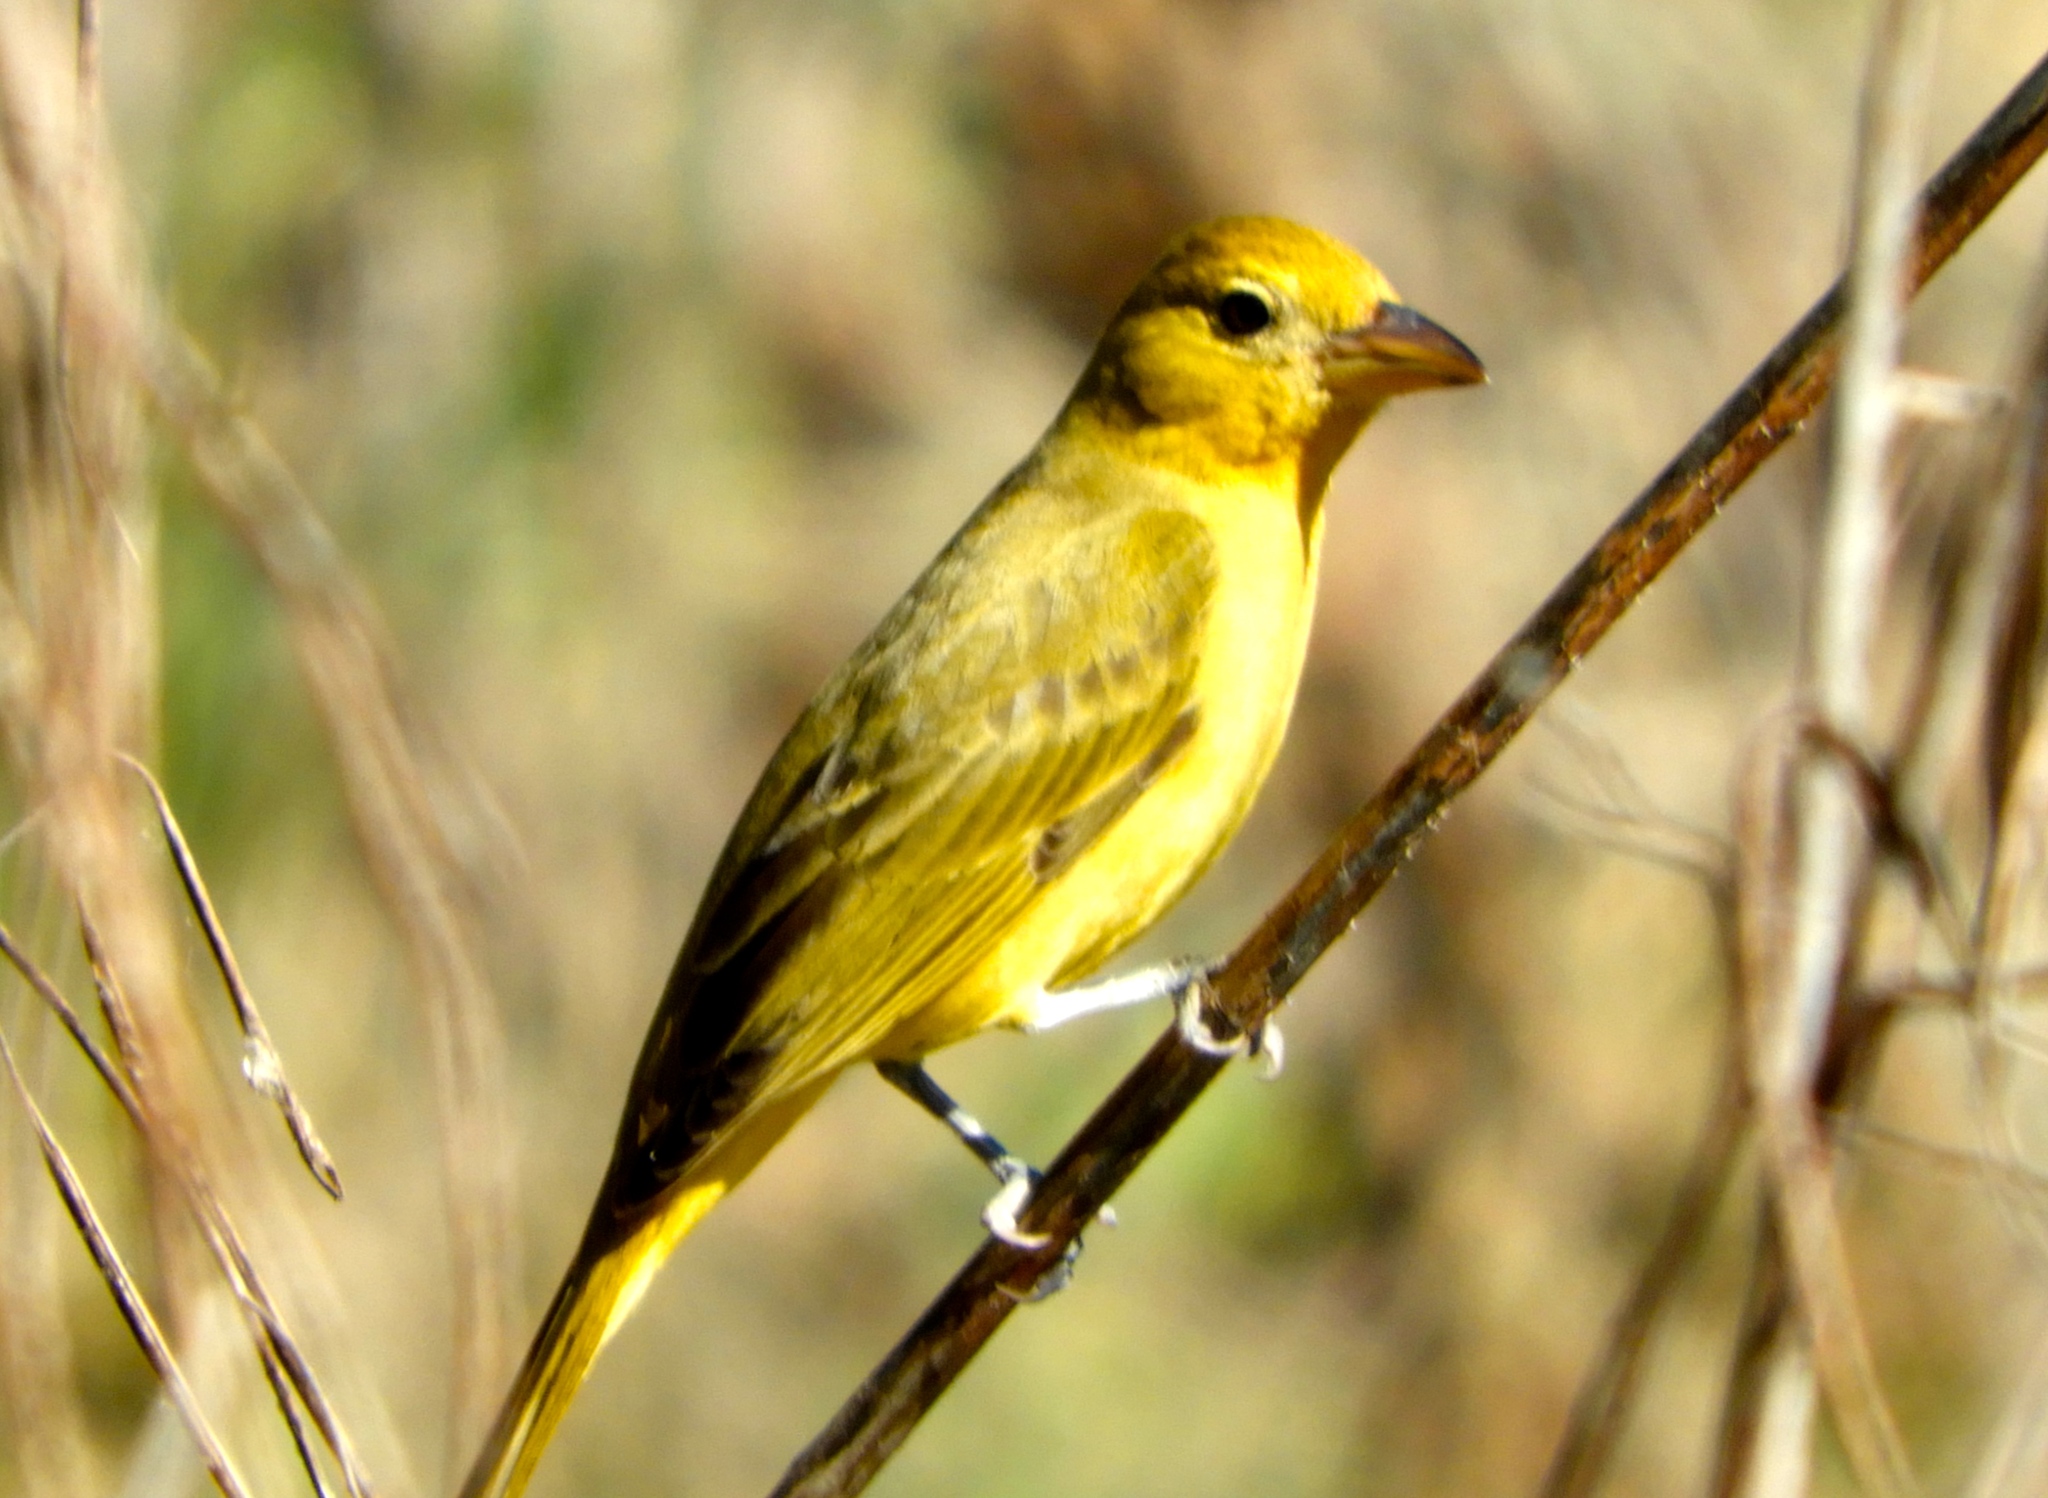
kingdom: Animalia
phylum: Chordata
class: Aves
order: Passeriformes
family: Cardinalidae
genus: Piranga
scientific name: Piranga rubra
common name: Summer tanager
